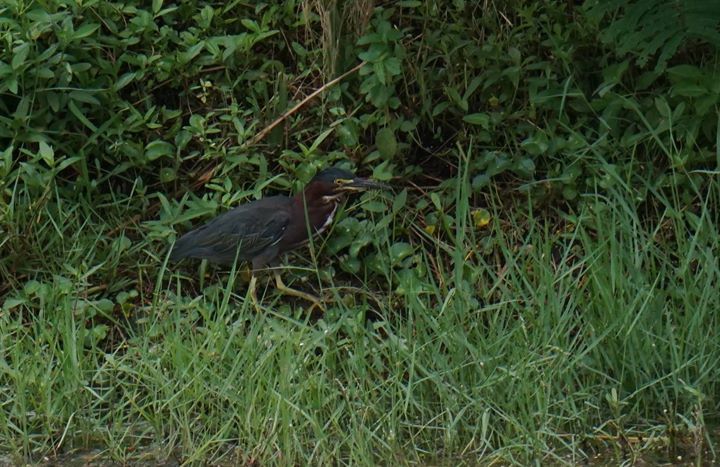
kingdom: Animalia
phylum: Chordata
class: Aves
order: Pelecaniformes
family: Ardeidae
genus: Butorides
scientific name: Butorides virescens
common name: Green heron
